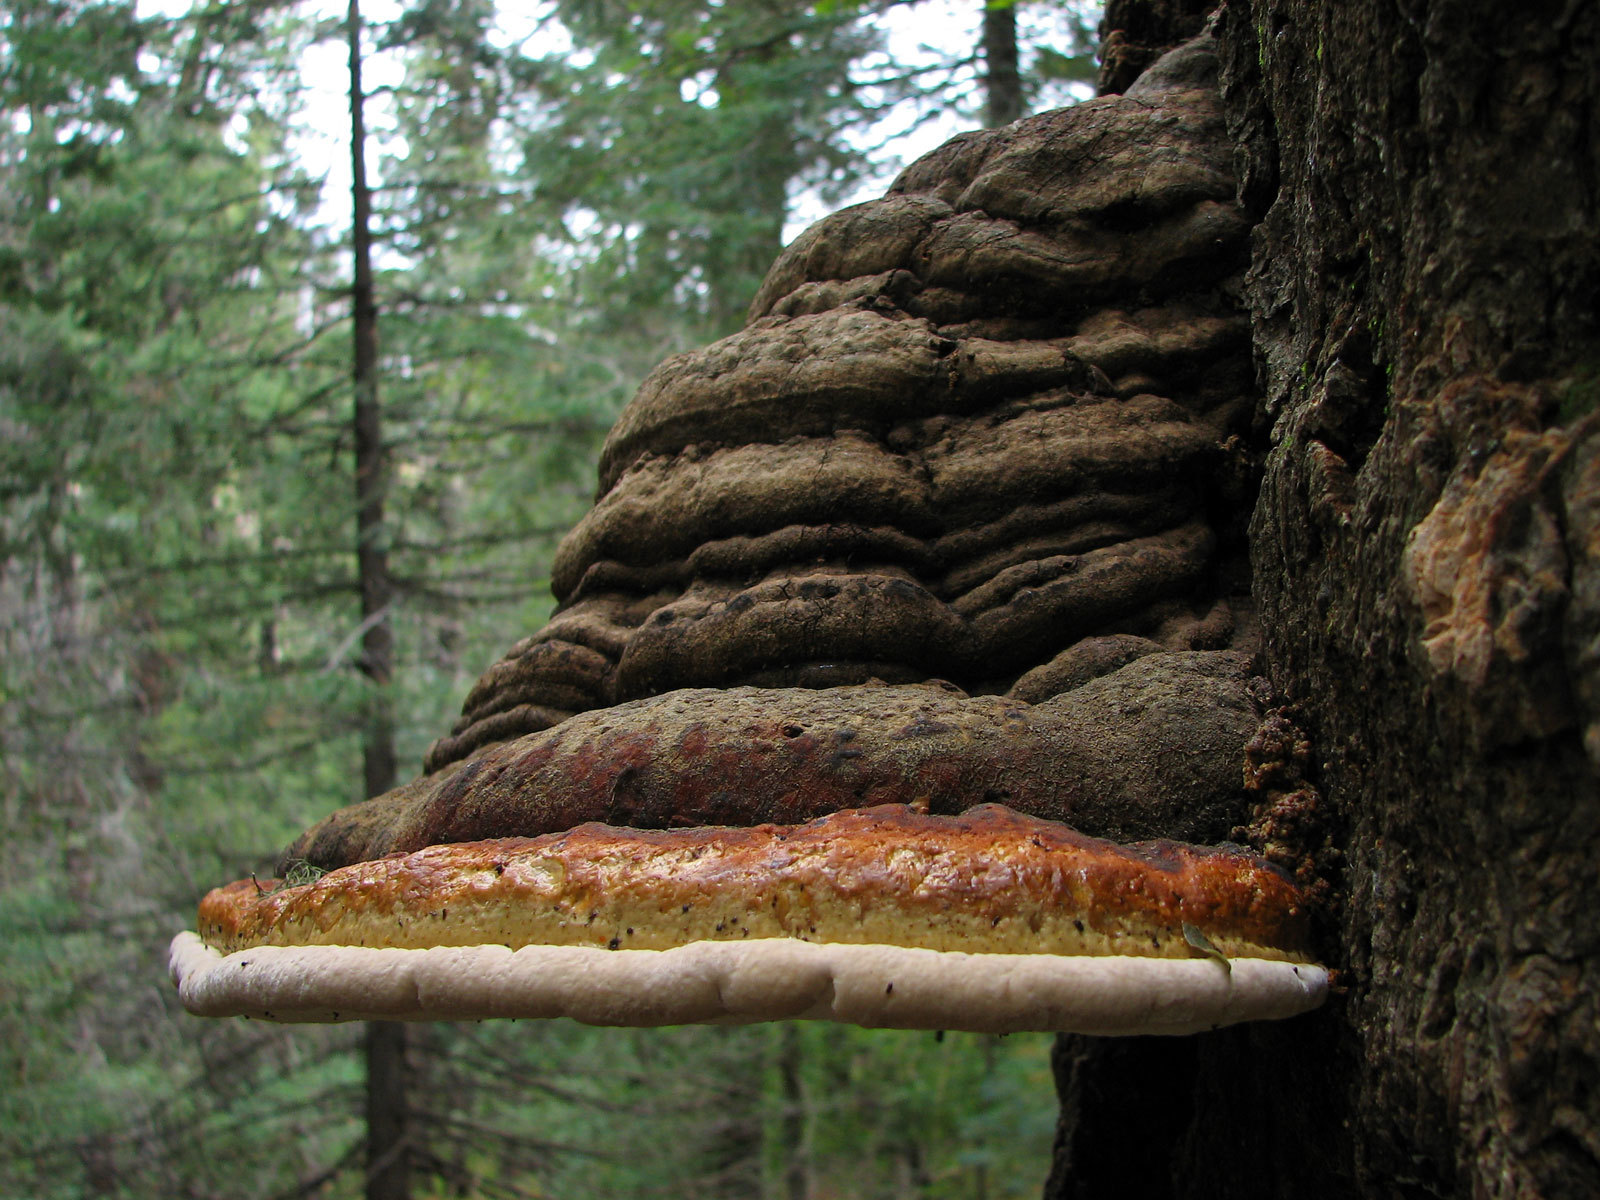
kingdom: Fungi
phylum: Basidiomycota
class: Agaricomycetes
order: Polyporales
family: Fomitopsidaceae
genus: Fomitopsis
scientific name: Fomitopsis schrenkii
